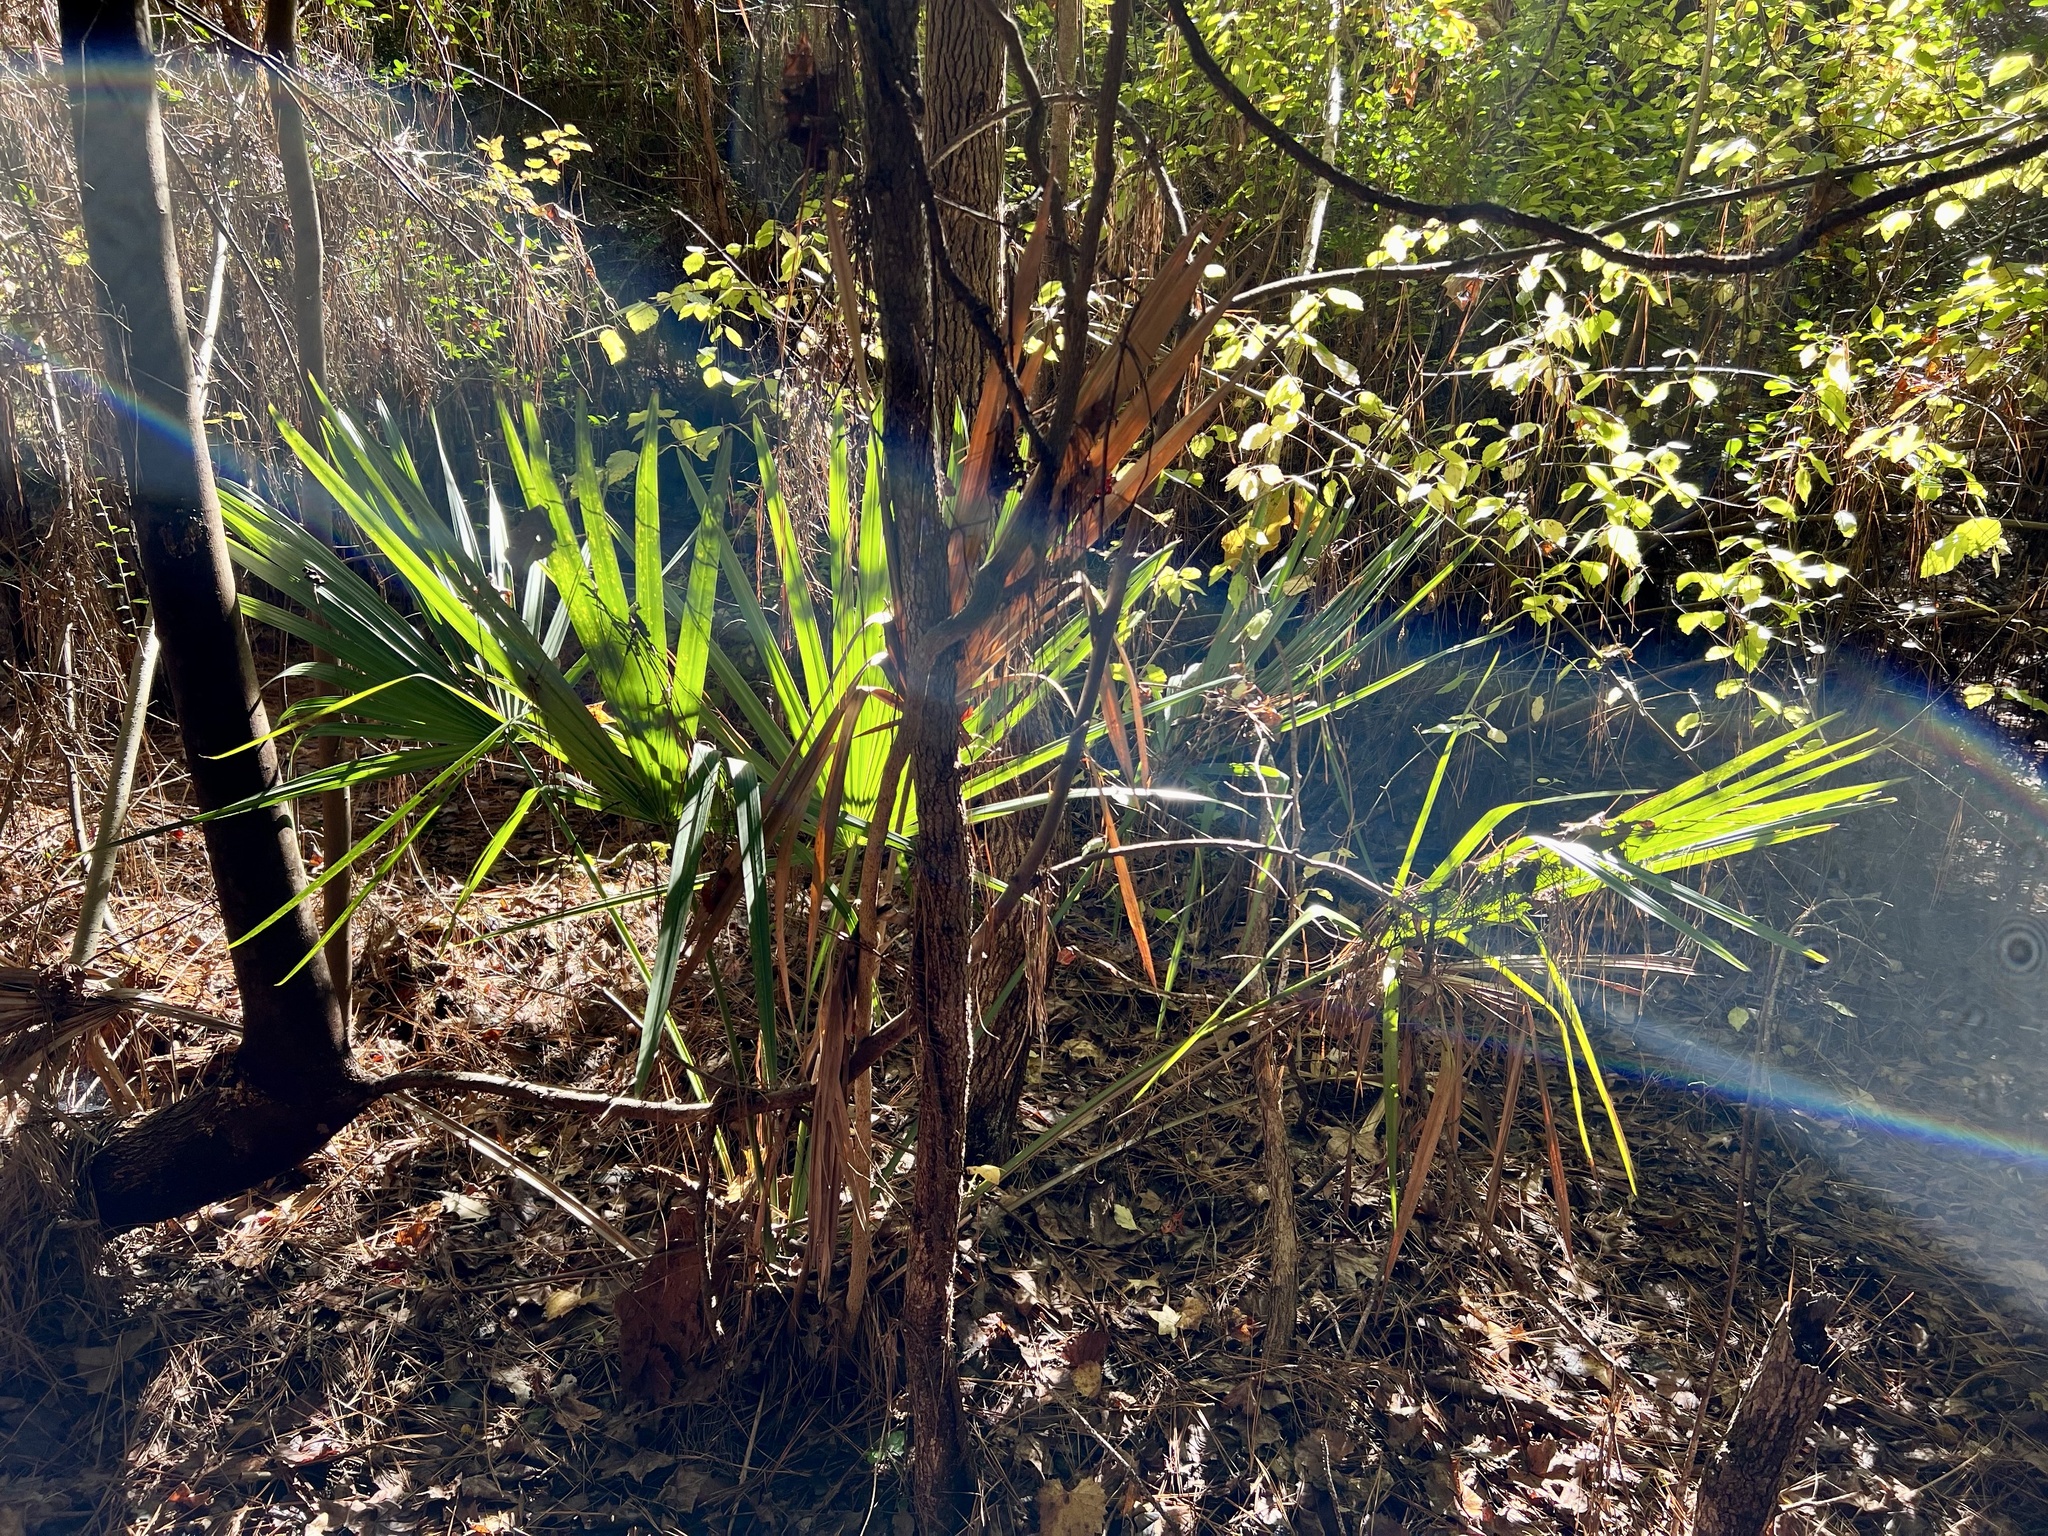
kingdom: Plantae
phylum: Tracheophyta
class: Liliopsida
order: Arecales
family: Arecaceae
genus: Sabal
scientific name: Sabal minor
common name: Dwarf palmetto
